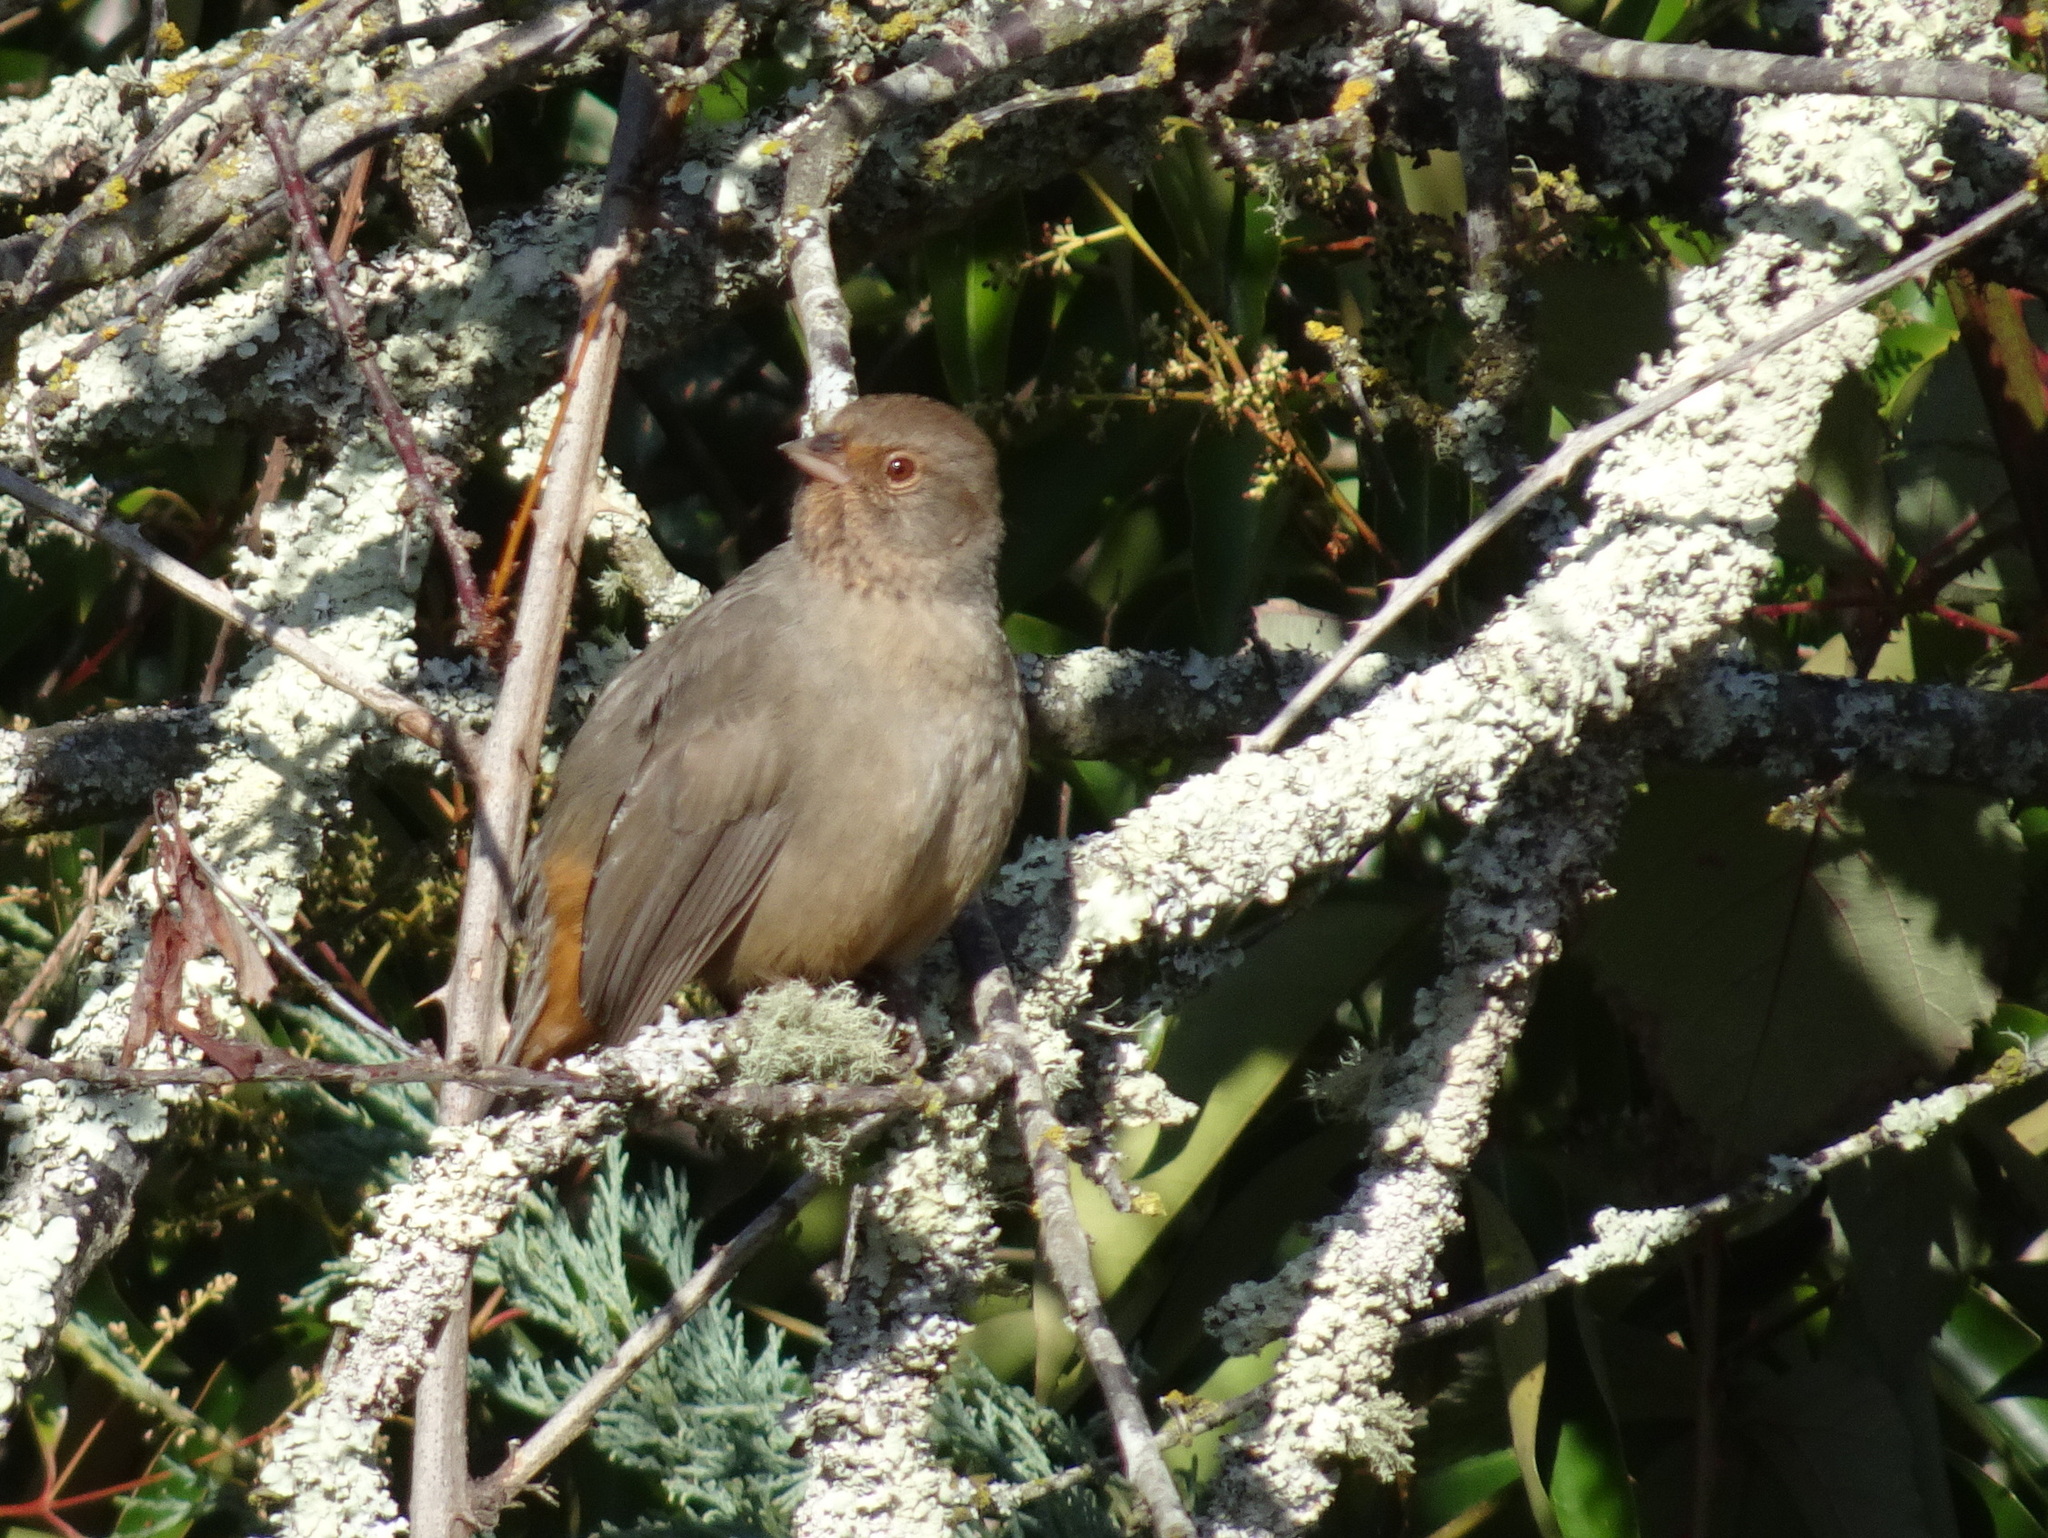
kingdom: Animalia
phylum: Chordata
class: Aves
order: Passeriformes
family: Passerellidae
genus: Melozone
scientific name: Melozone crissalis
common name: California towhee
